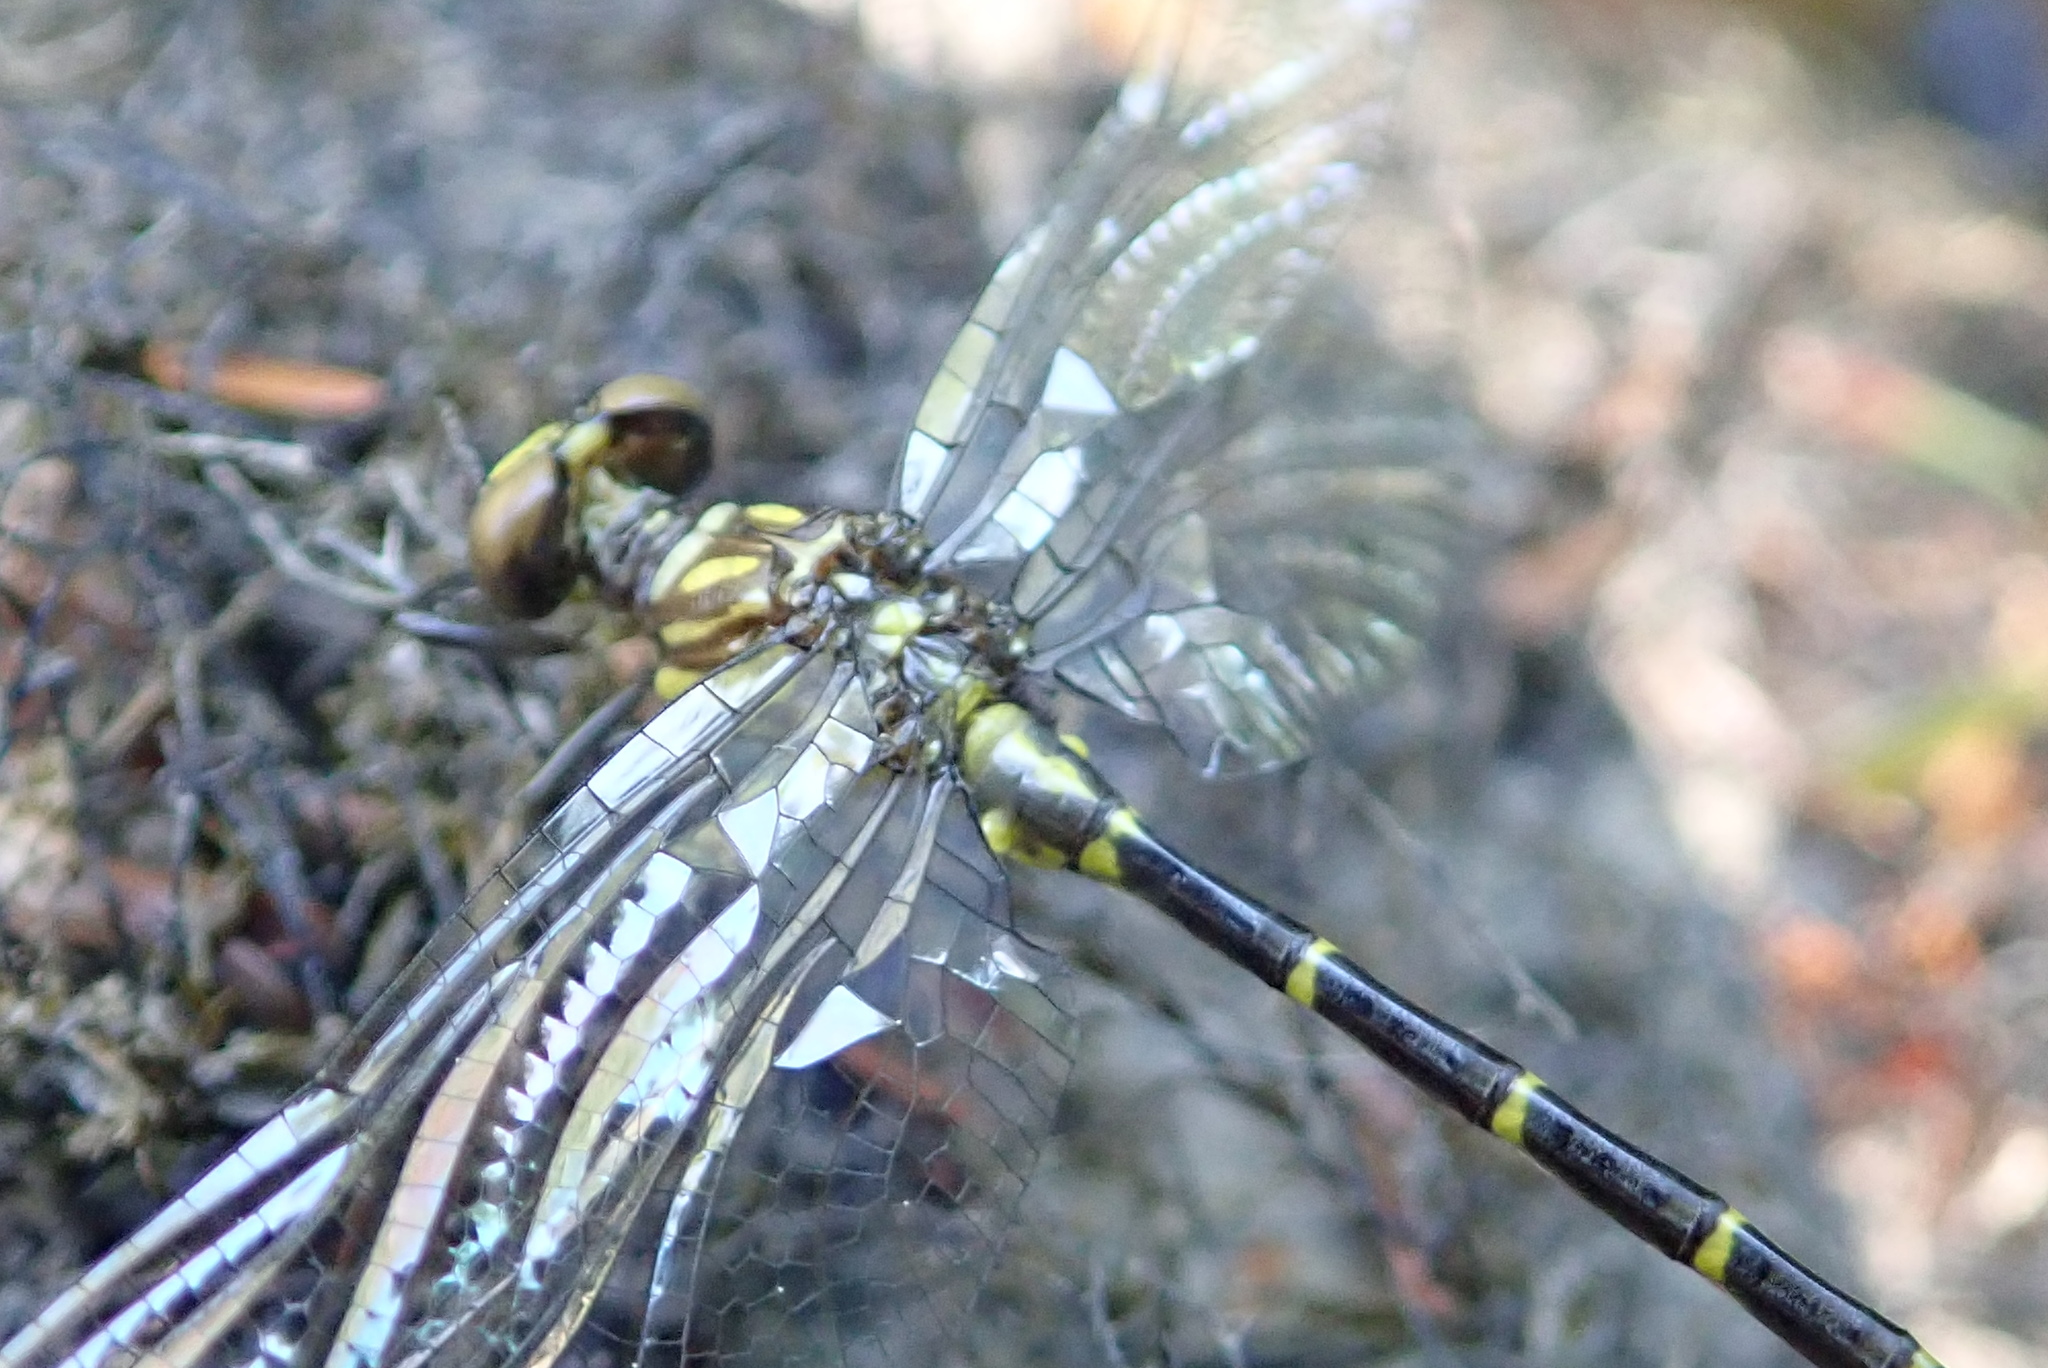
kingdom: Animalia
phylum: Arthropoda
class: Insecta
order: Odonata
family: Gomphidae
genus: Stylogomphus
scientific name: Stylogomphus albistylus
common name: Eastern least clubtail
